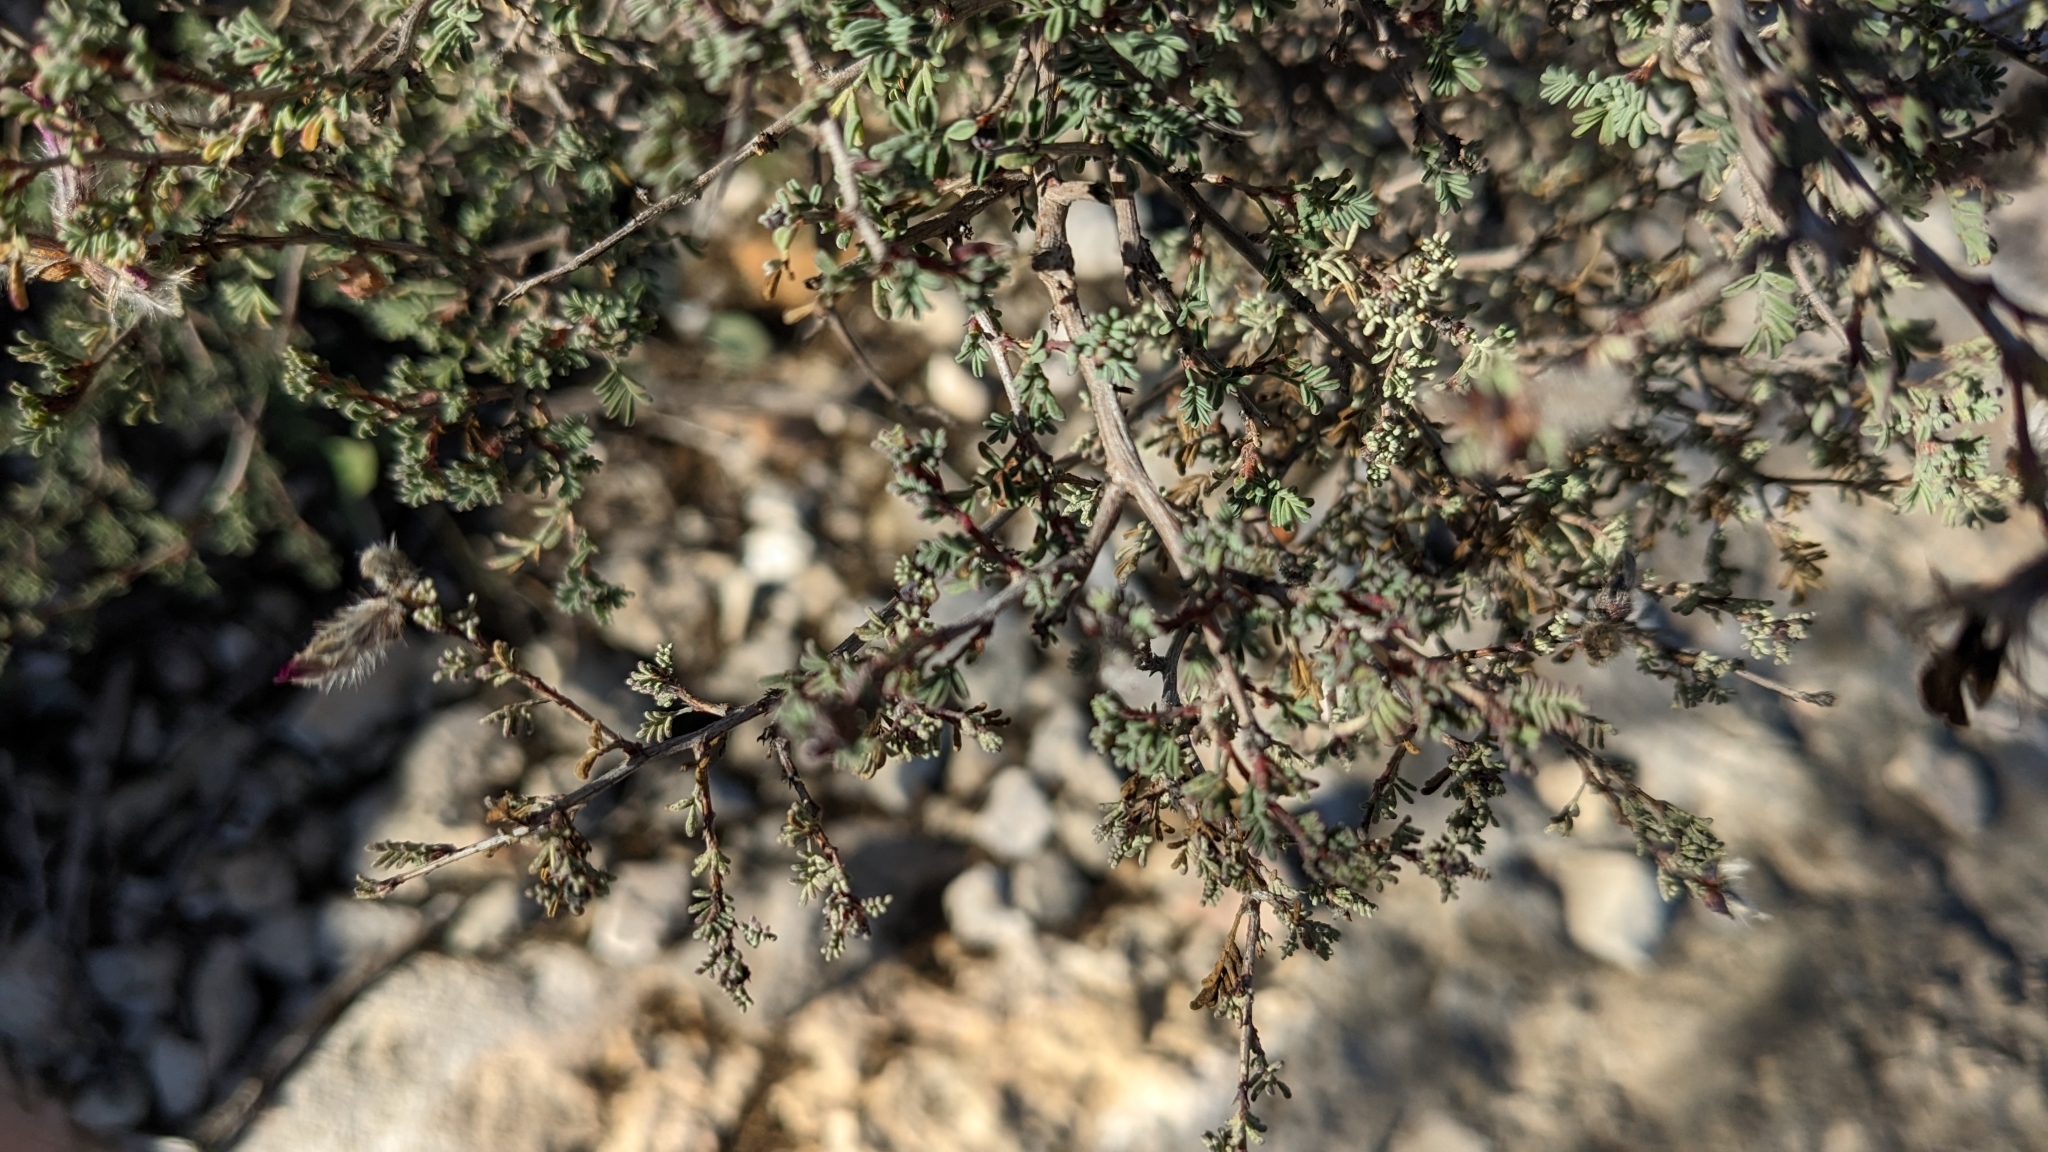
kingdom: Plantae
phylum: Tracheophyta
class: Magnoliopsida
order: Fabales
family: Fabaceae
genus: Dalea
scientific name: Dalea formosa
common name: Feather-plume dalea
